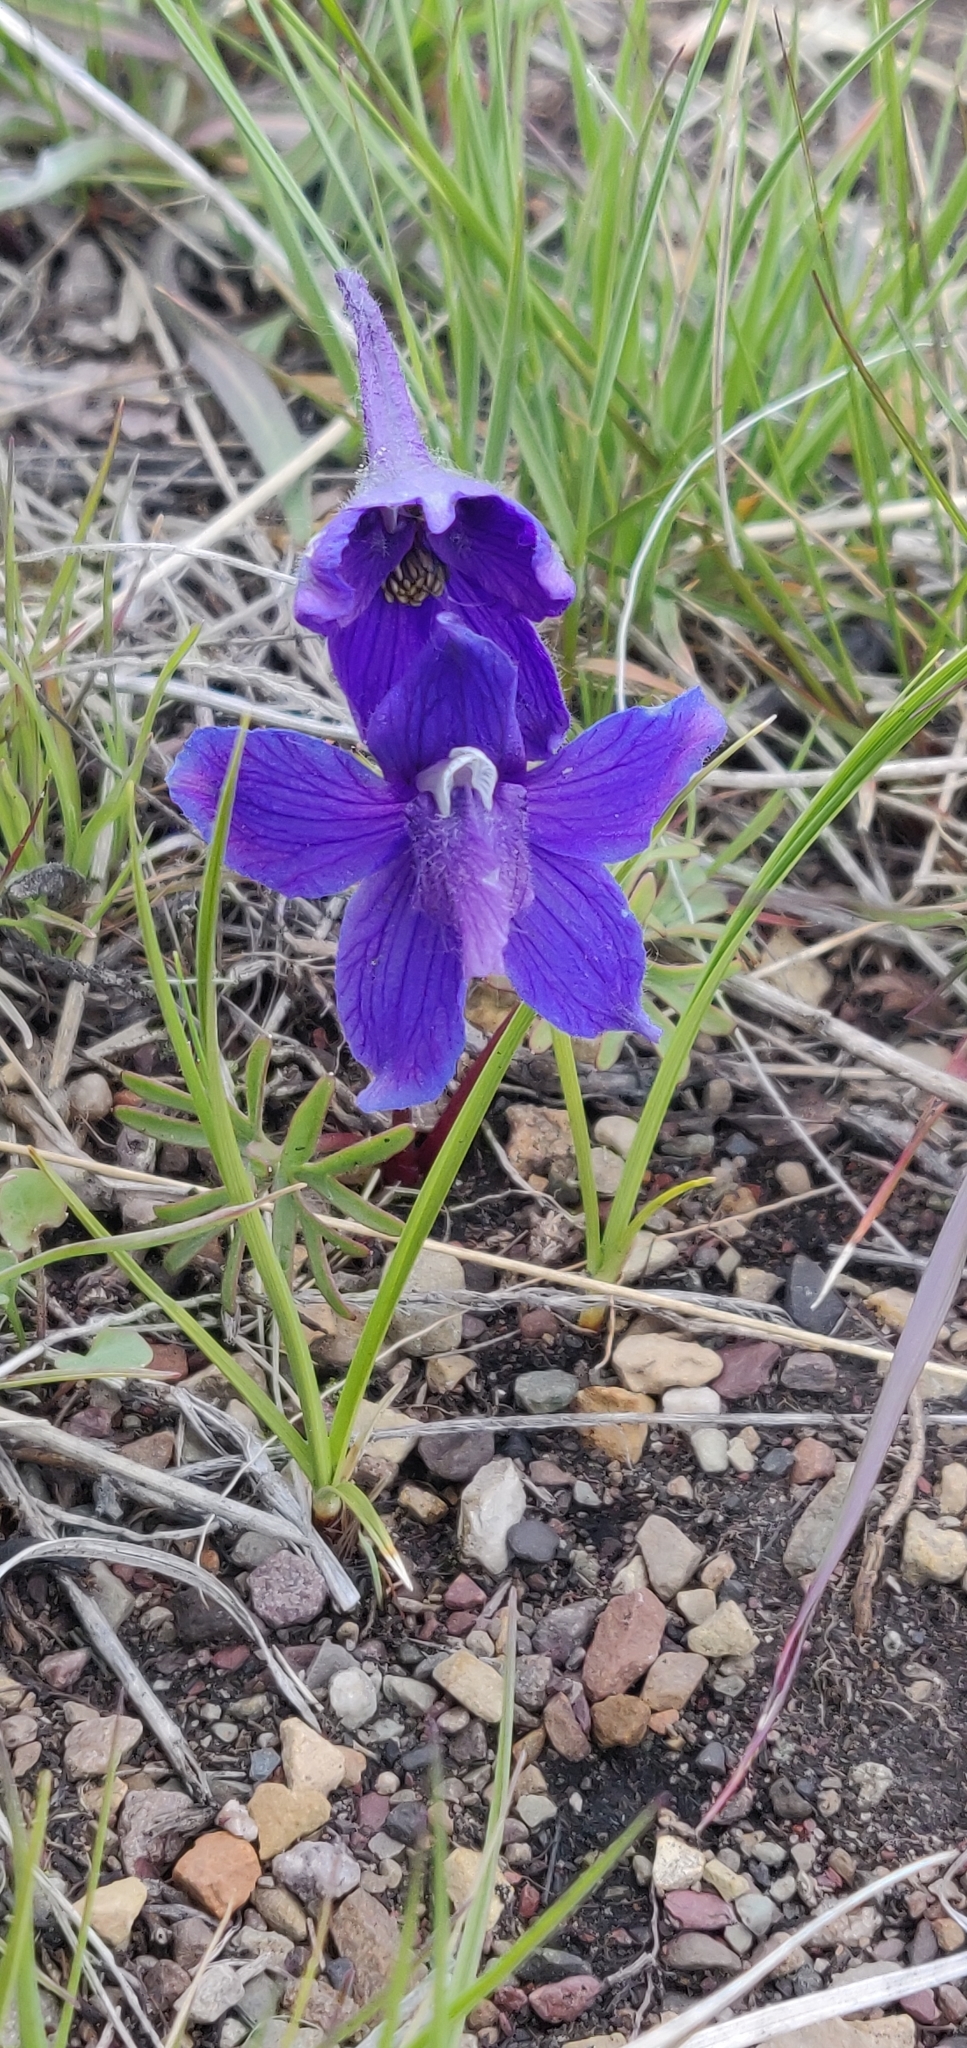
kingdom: Plantae
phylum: Tracheophyta
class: Magnoliopsida
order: Ranunculales
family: Ranunculaceae
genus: Delphinium
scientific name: Delphinium bicolor
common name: Low larkspur
